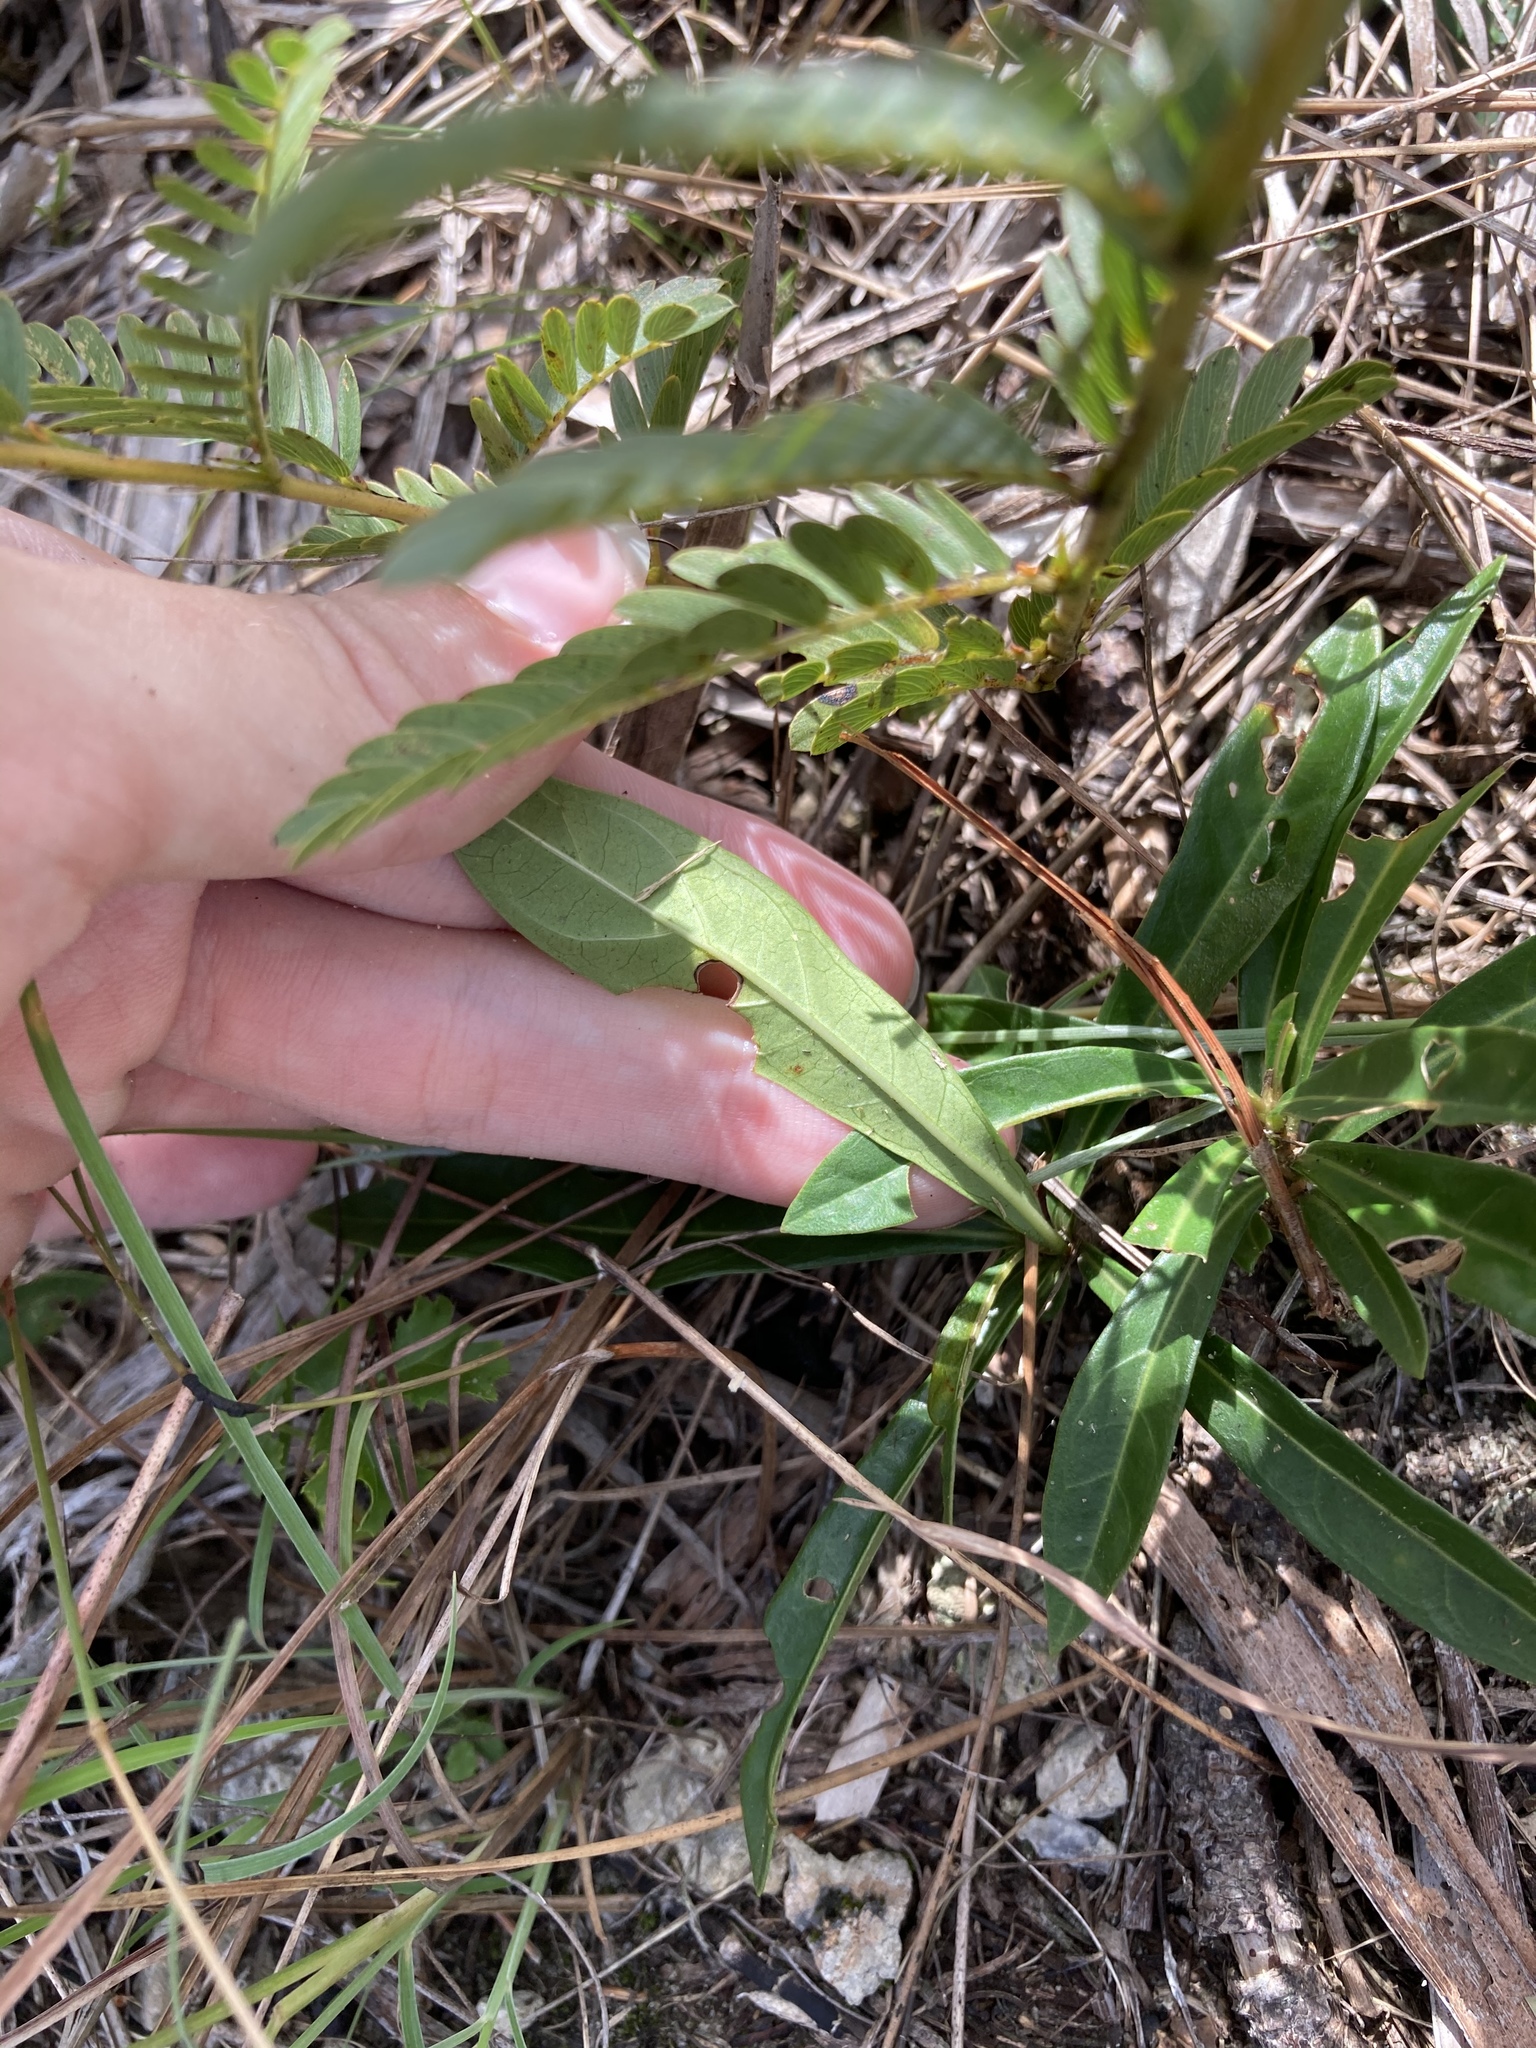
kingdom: Plantae
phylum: Tracheophyta
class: Magnoliopsida
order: Gentianales
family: Rubiaceae
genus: Morinda
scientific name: Morinda royoc
